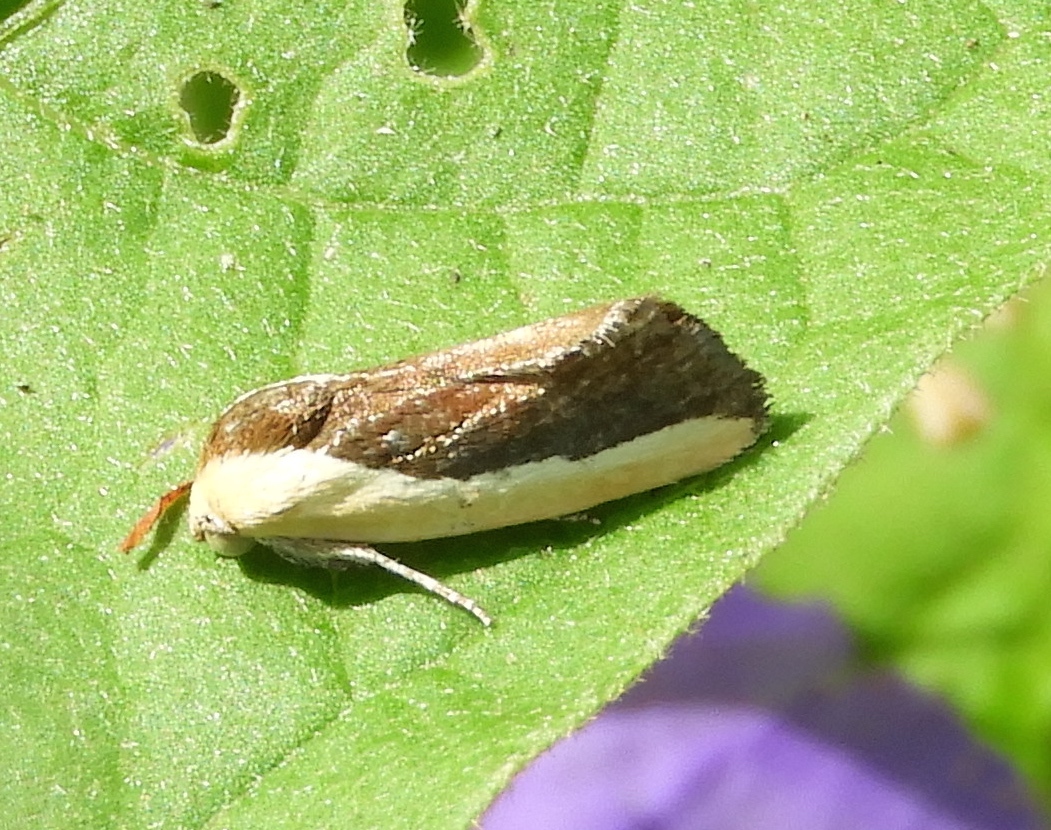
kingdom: Animalia
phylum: Arthropoda
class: Insecta
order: Lepidoptera
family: Noctuidae
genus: Acontia
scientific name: Acontia exigua
